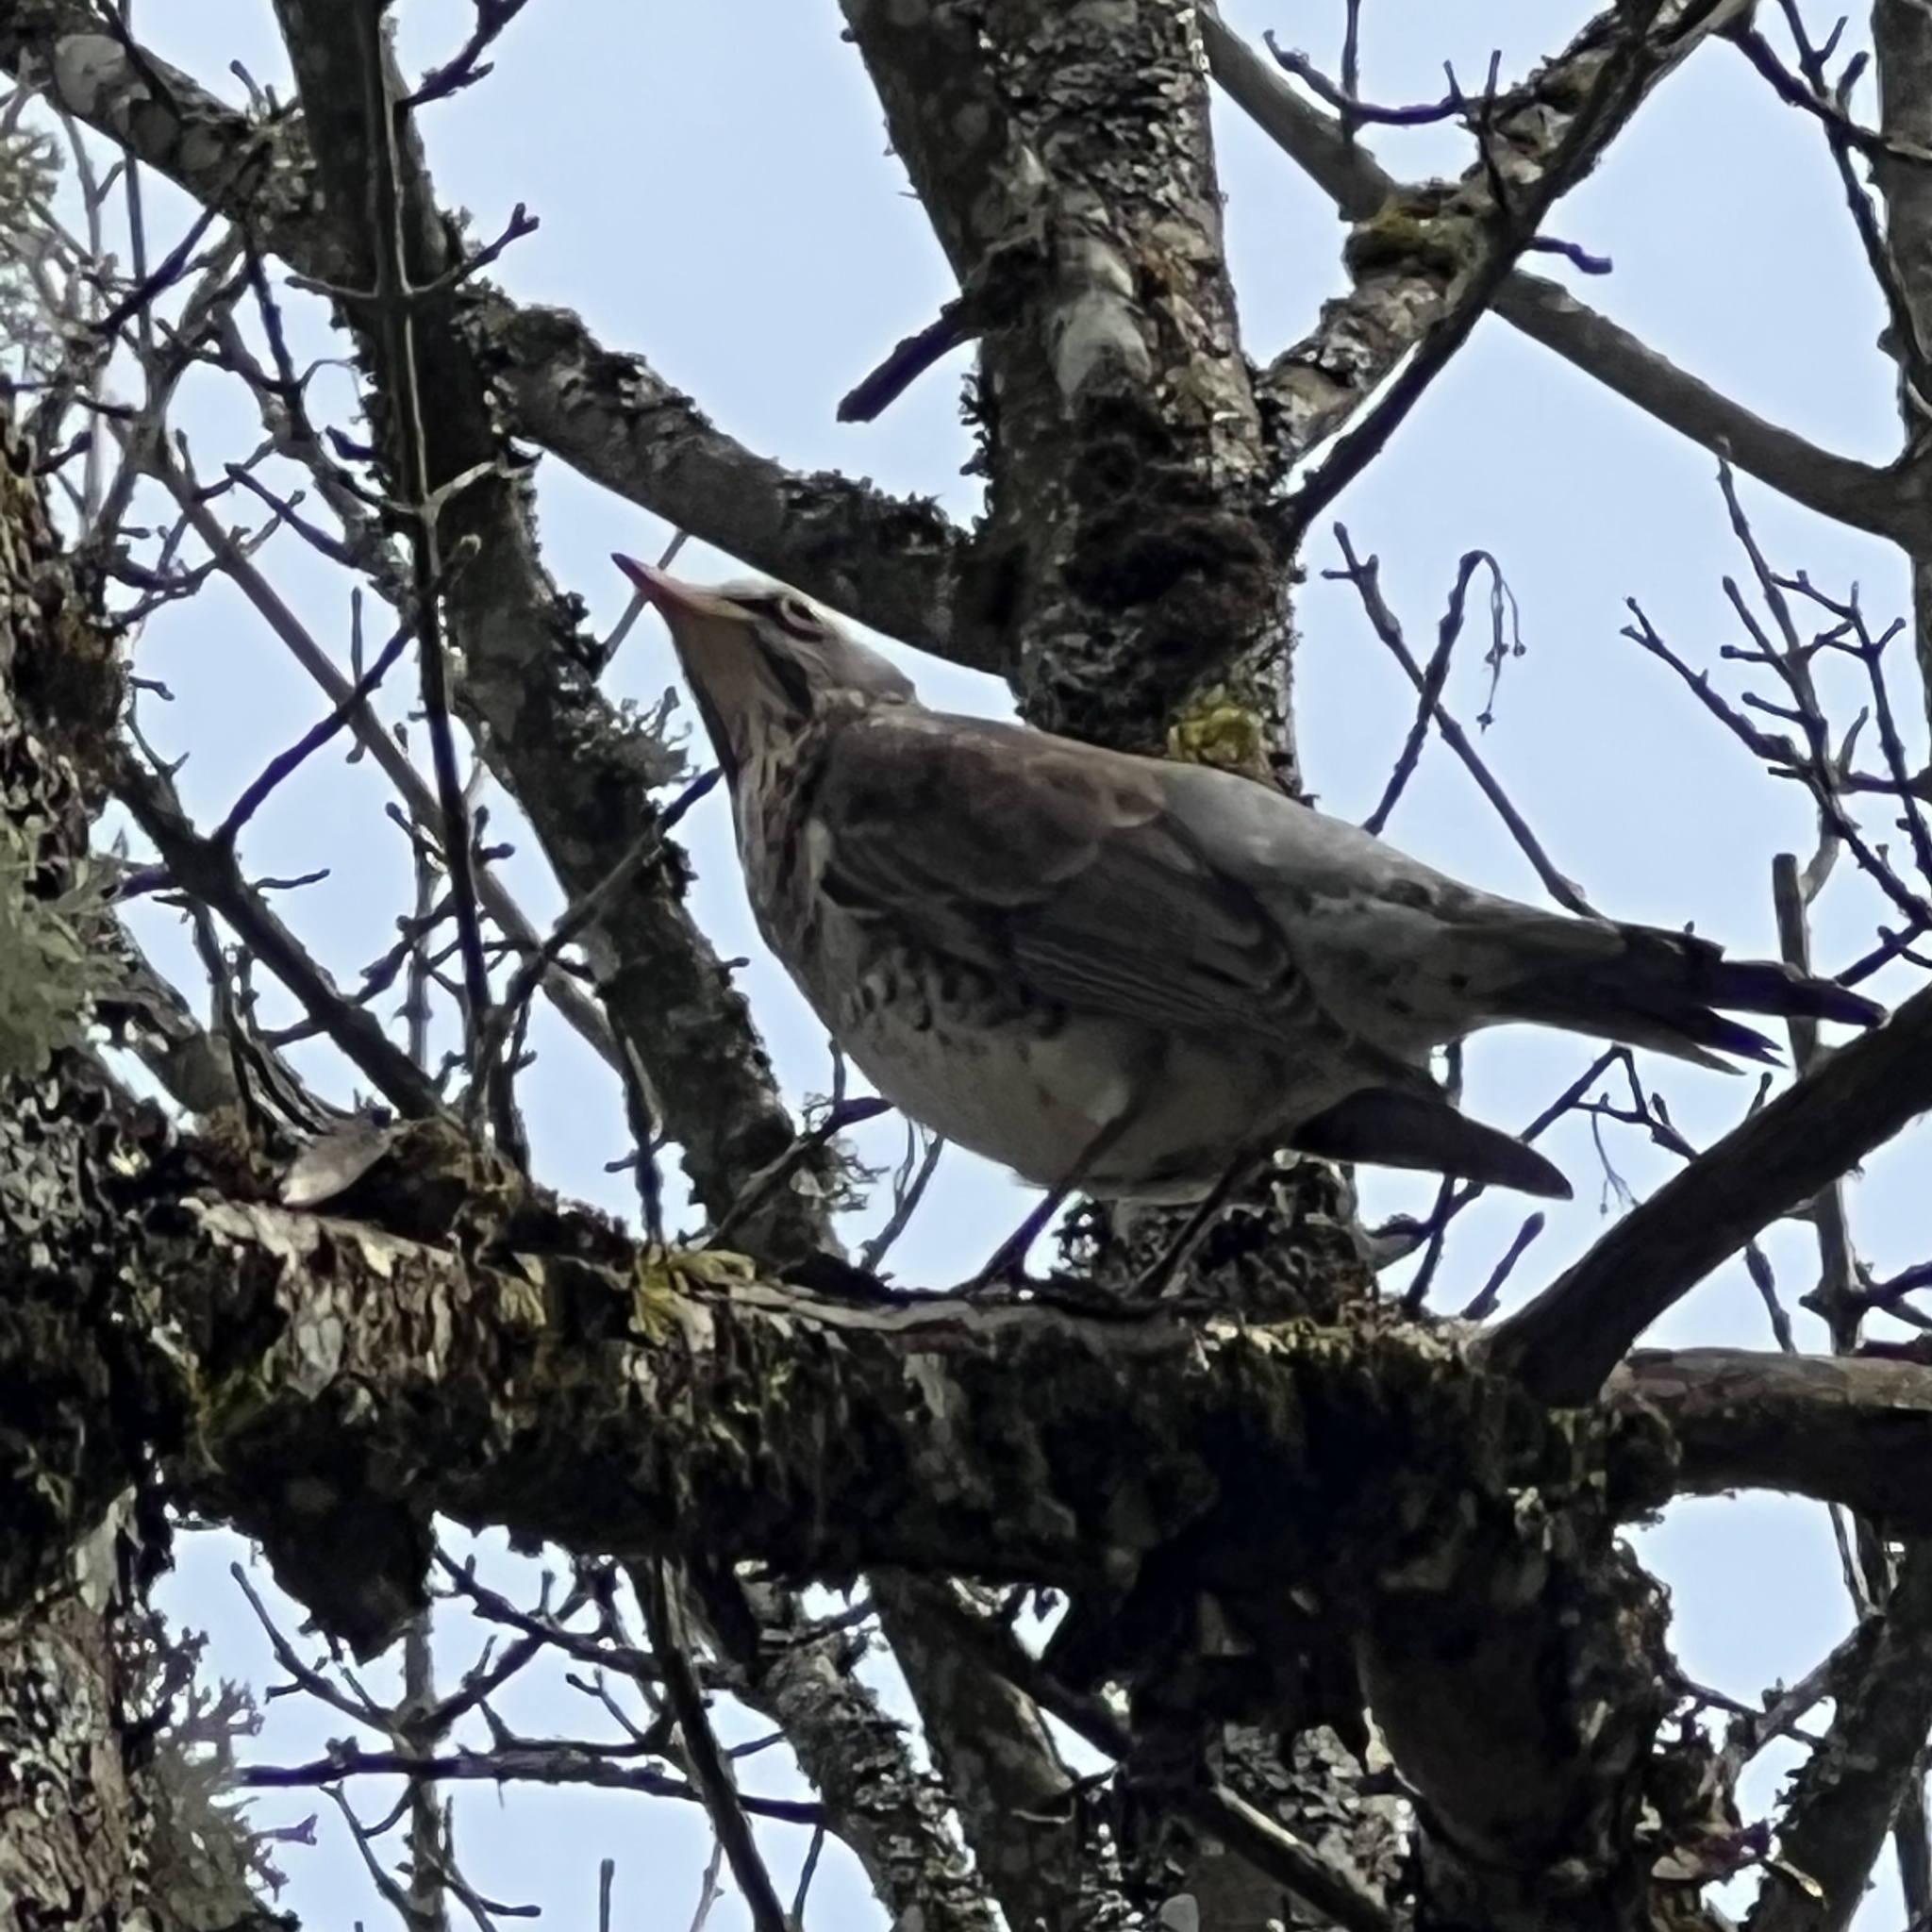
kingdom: Animalia
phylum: Chordata
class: Aves
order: Passeriformes
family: Turdidae
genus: Turdus
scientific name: Turdus pilaris
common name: Fieldfare
